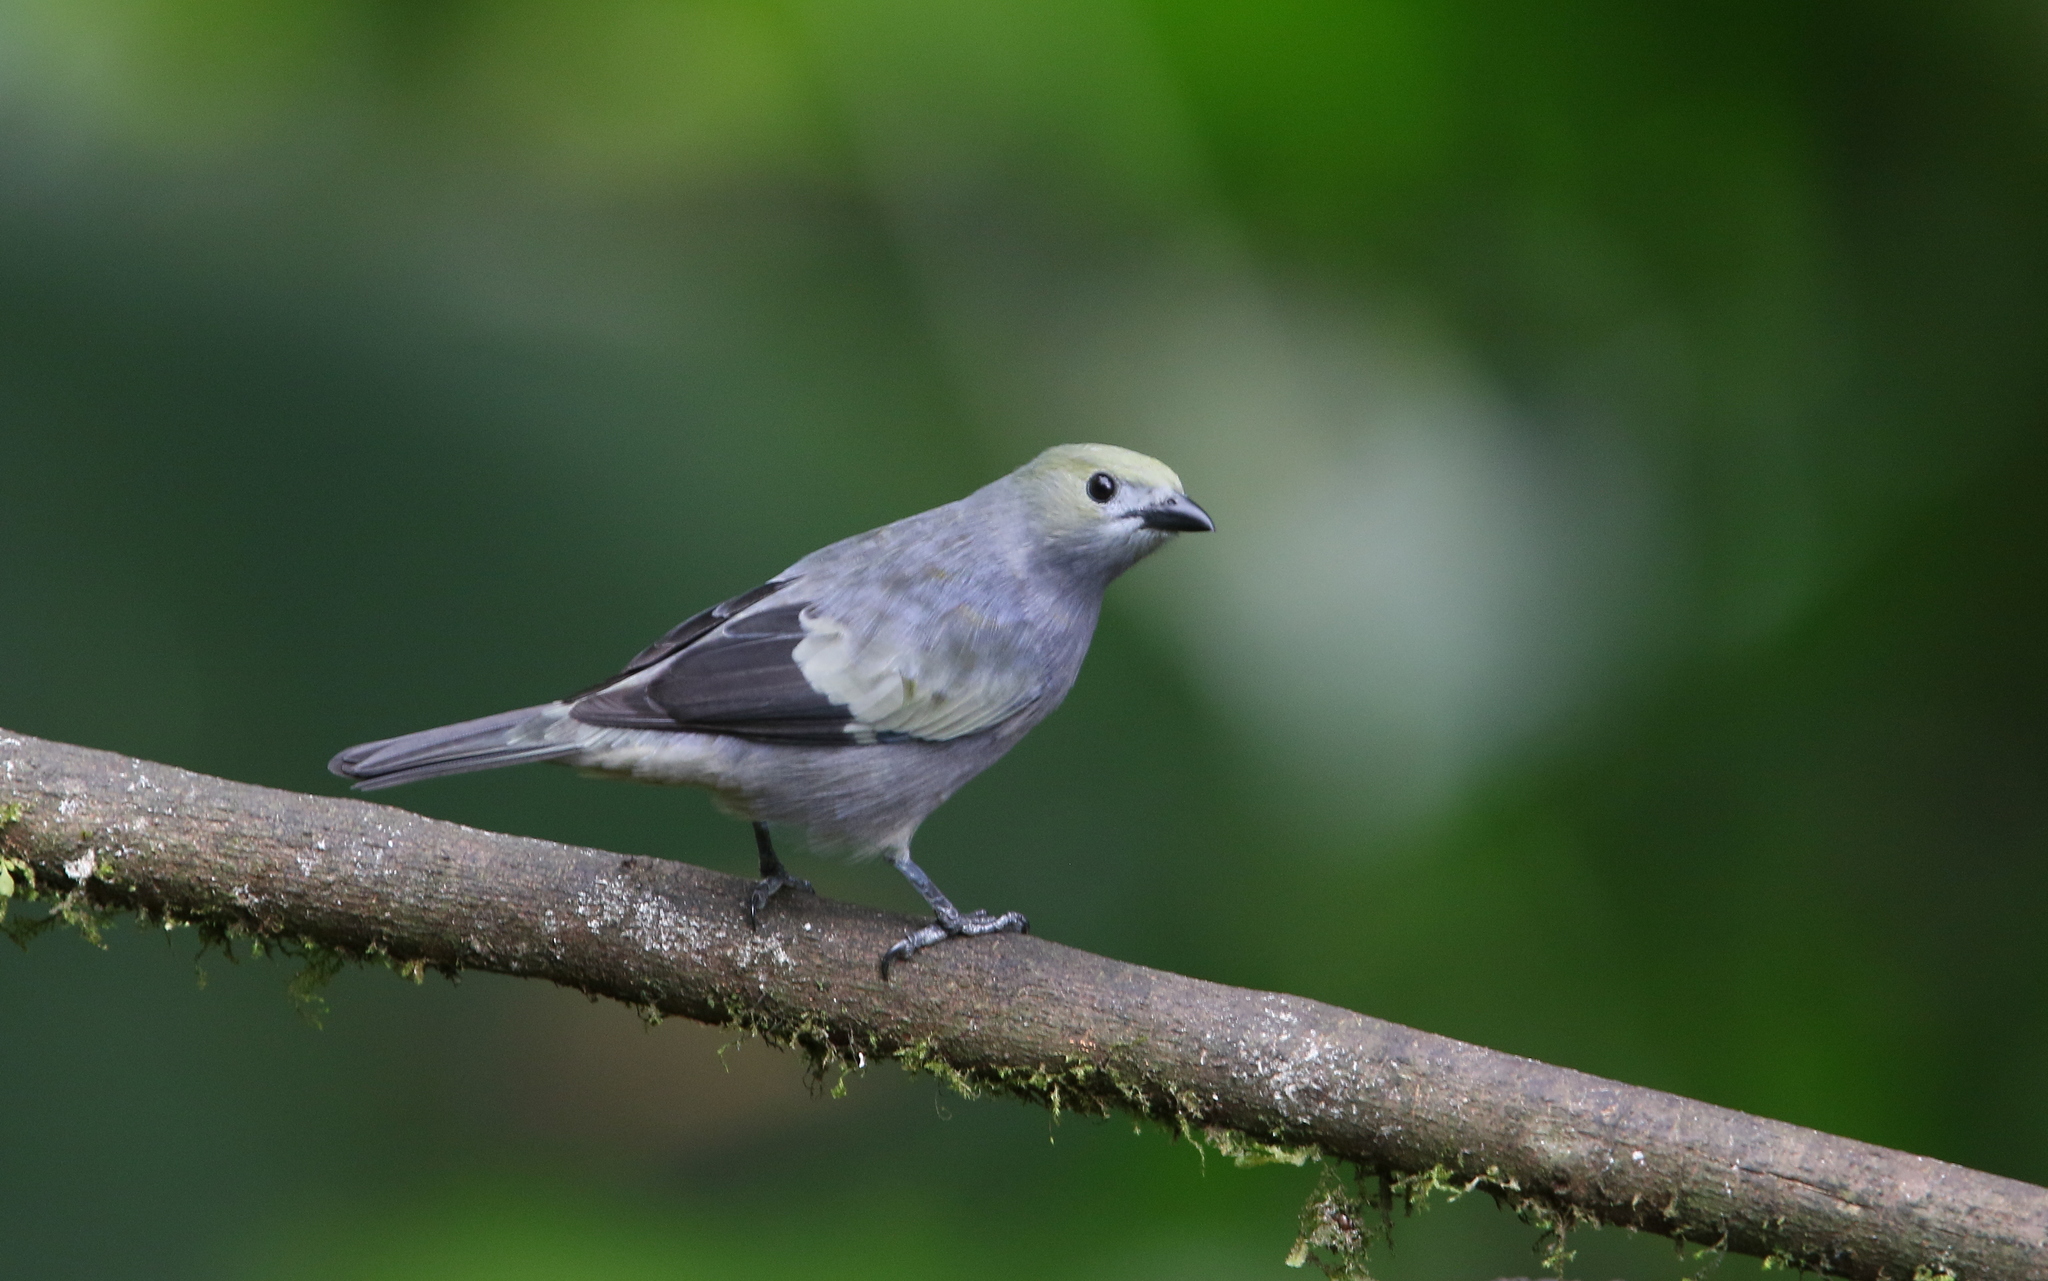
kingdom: Animalia
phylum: Chordata
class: Aves
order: Passeriformes
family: Thraupidae
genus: Thraupis
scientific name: Thraupis palmarum
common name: Palm tanager
